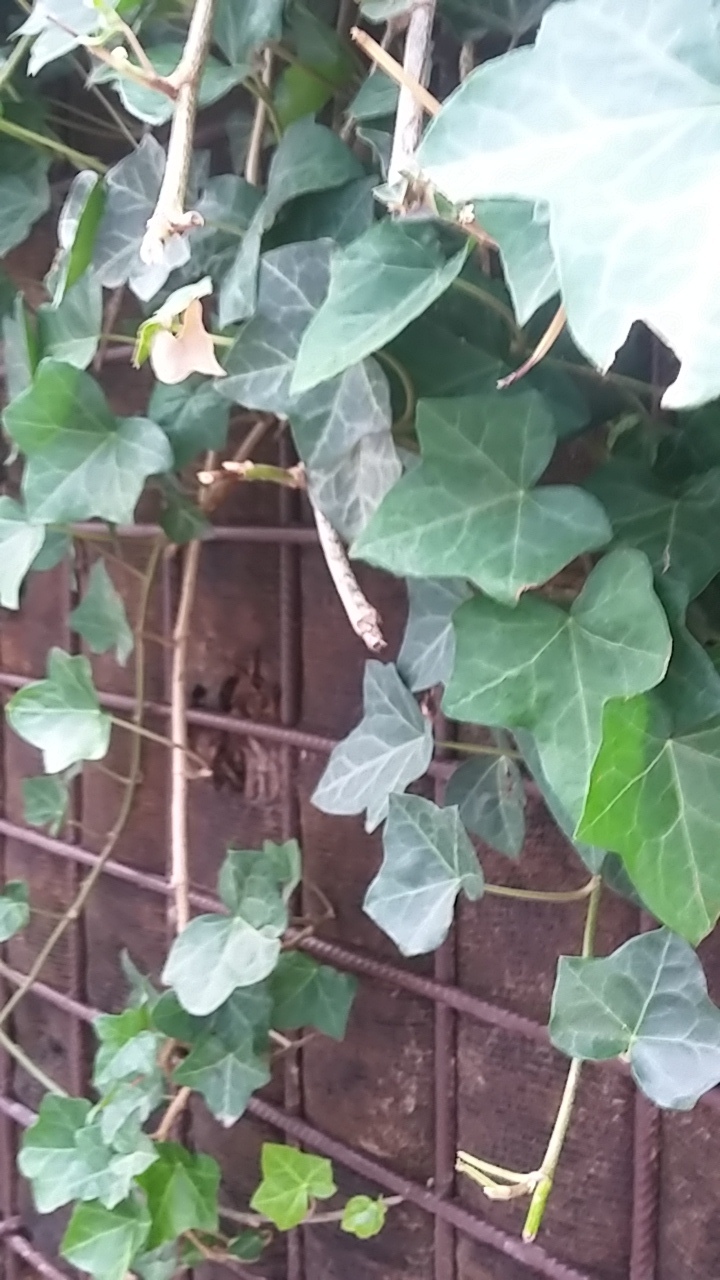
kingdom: Plantae
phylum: Tracheophyta
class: Magnoliopsida
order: Apiales
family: Araliaceae
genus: Hedera
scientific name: Hedera helix
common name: Ivy
